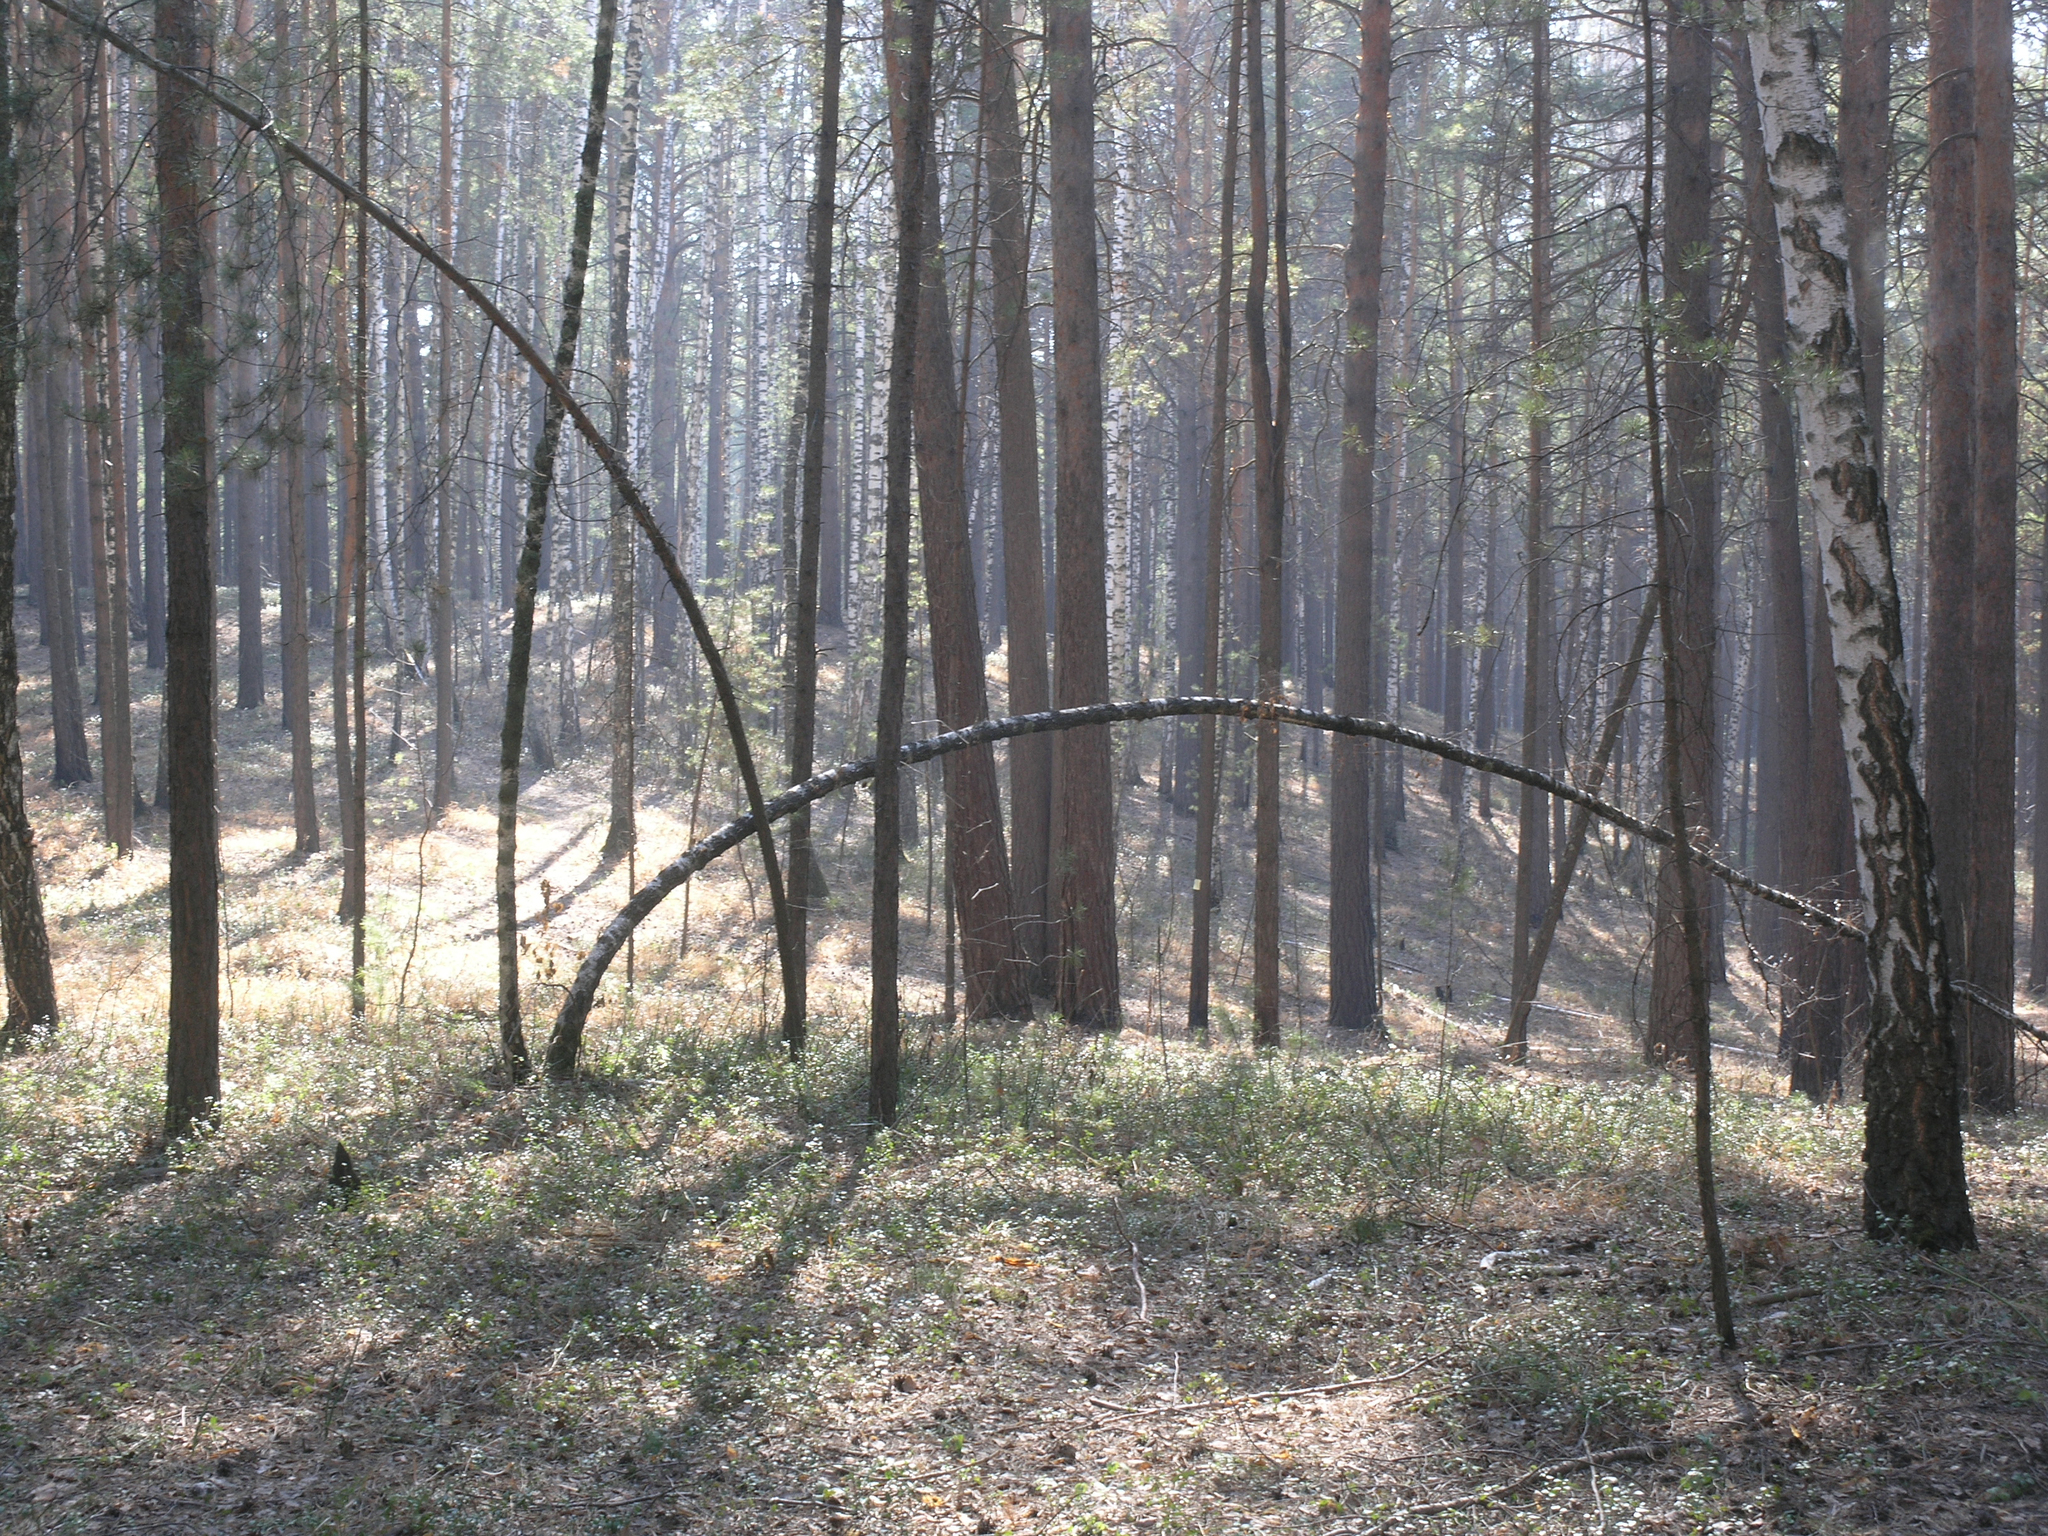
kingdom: Plantae
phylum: Tracheophyta
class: Pinopsida
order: Pinales
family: Pinaceae
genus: Pinus
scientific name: Pinus sylvestris
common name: Scots pine
